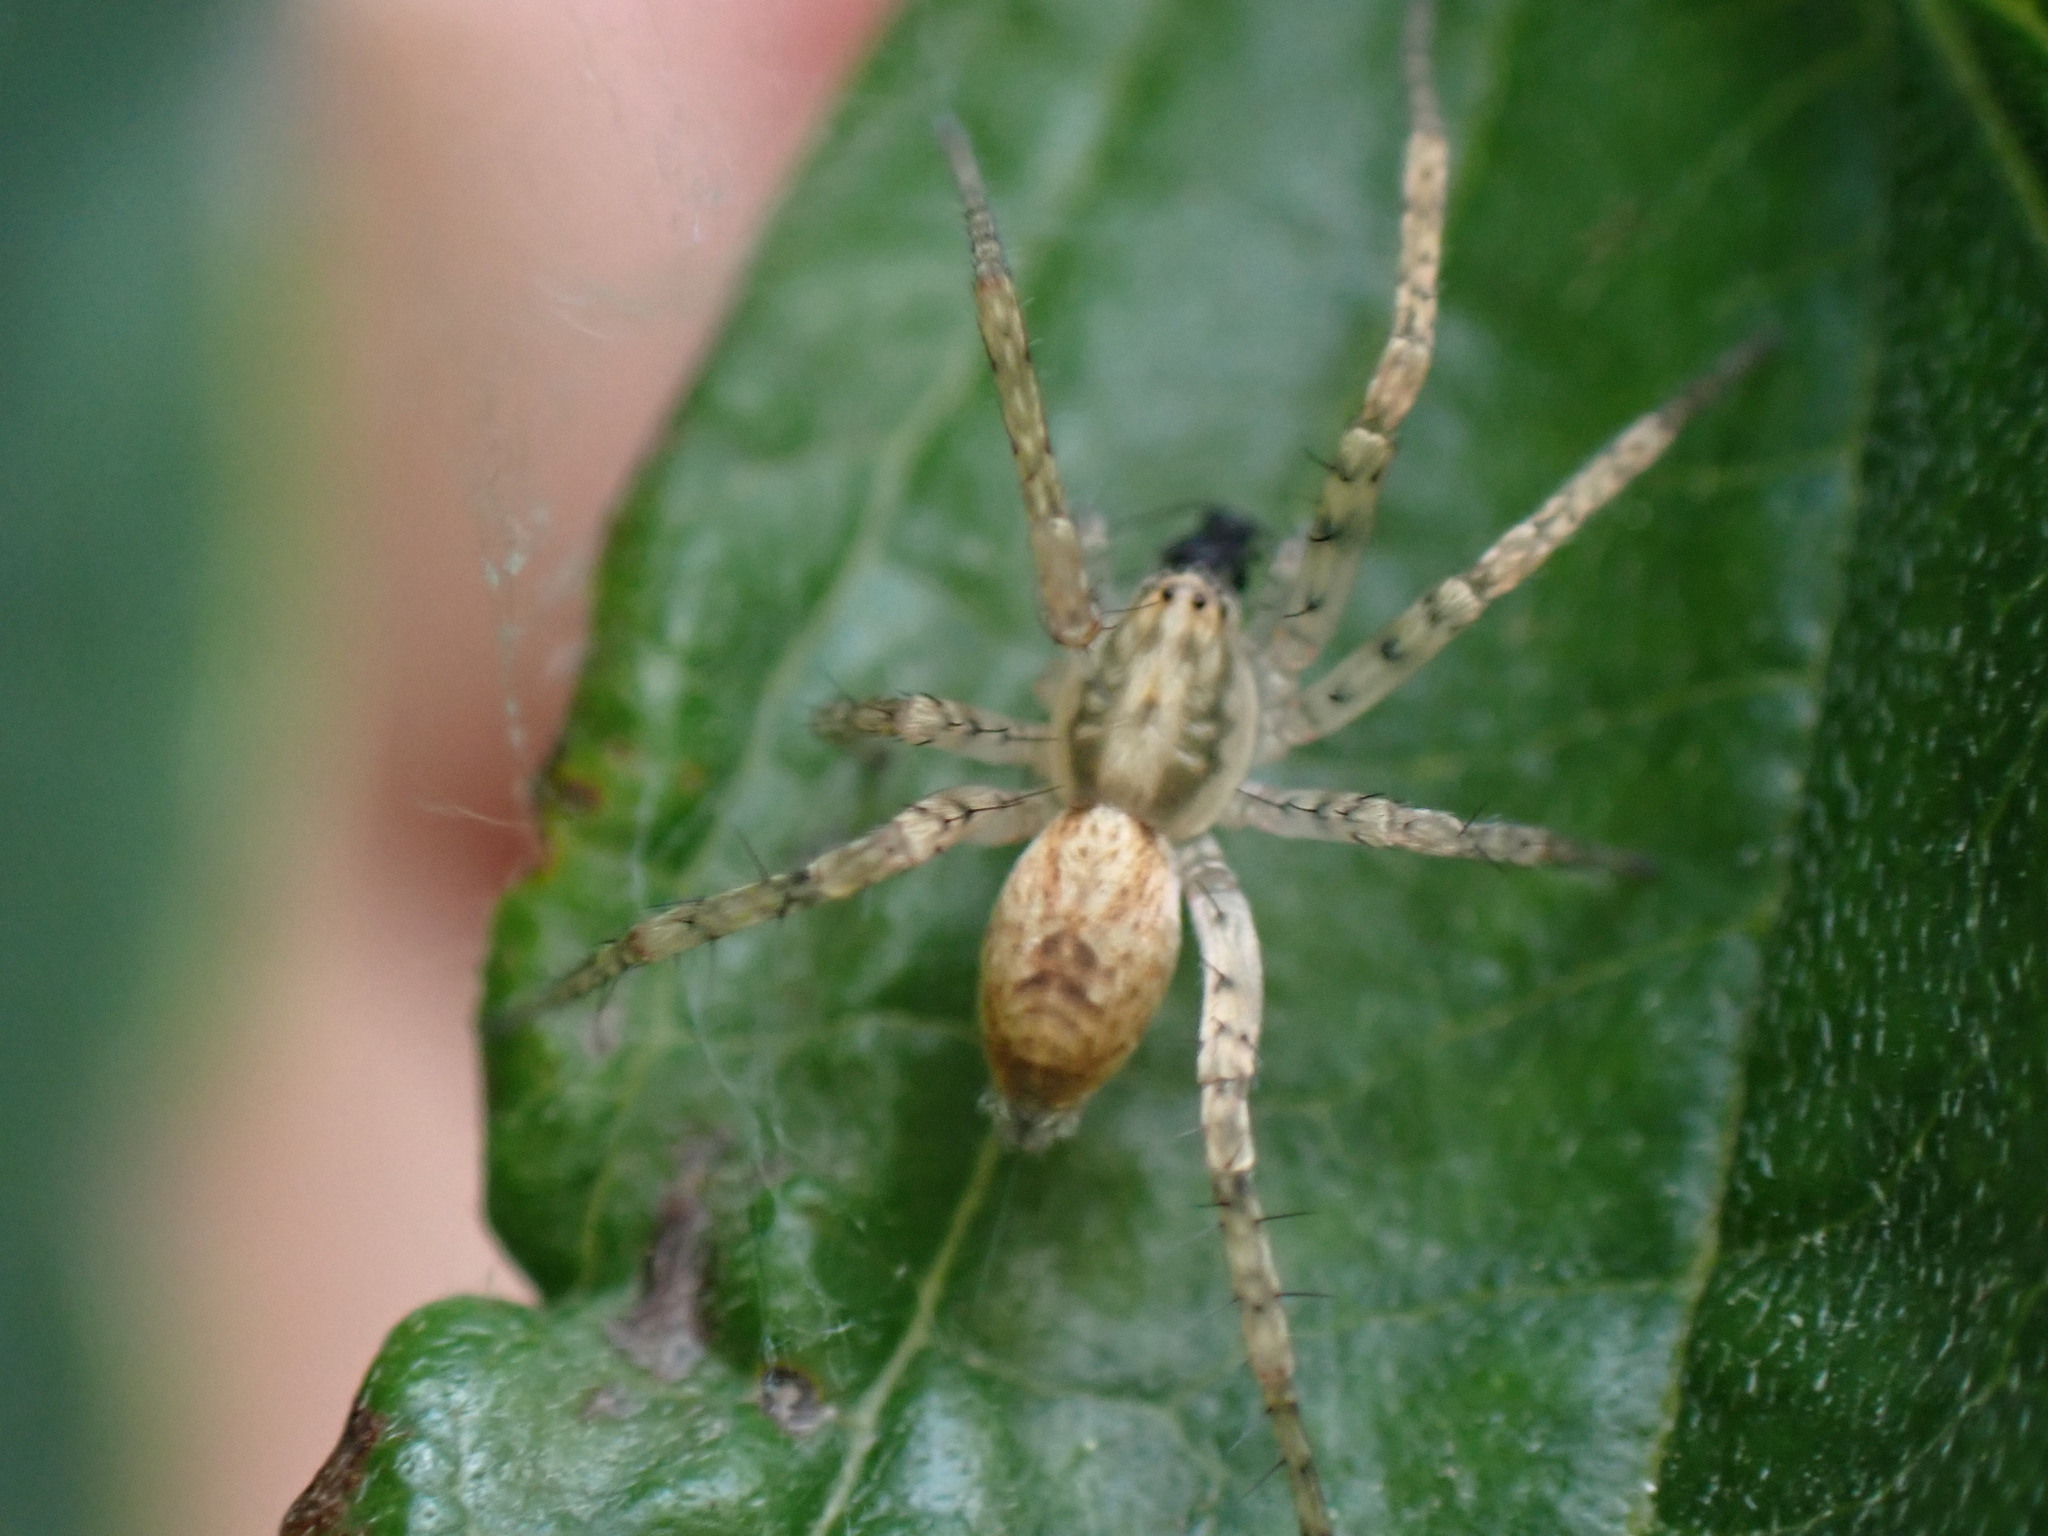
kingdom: Animalia
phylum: Arthropoda
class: Arachnida
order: Araneae
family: Anyphaenidae
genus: Anyphaena
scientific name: Anyphaena accentuata
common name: Buzzing spider
